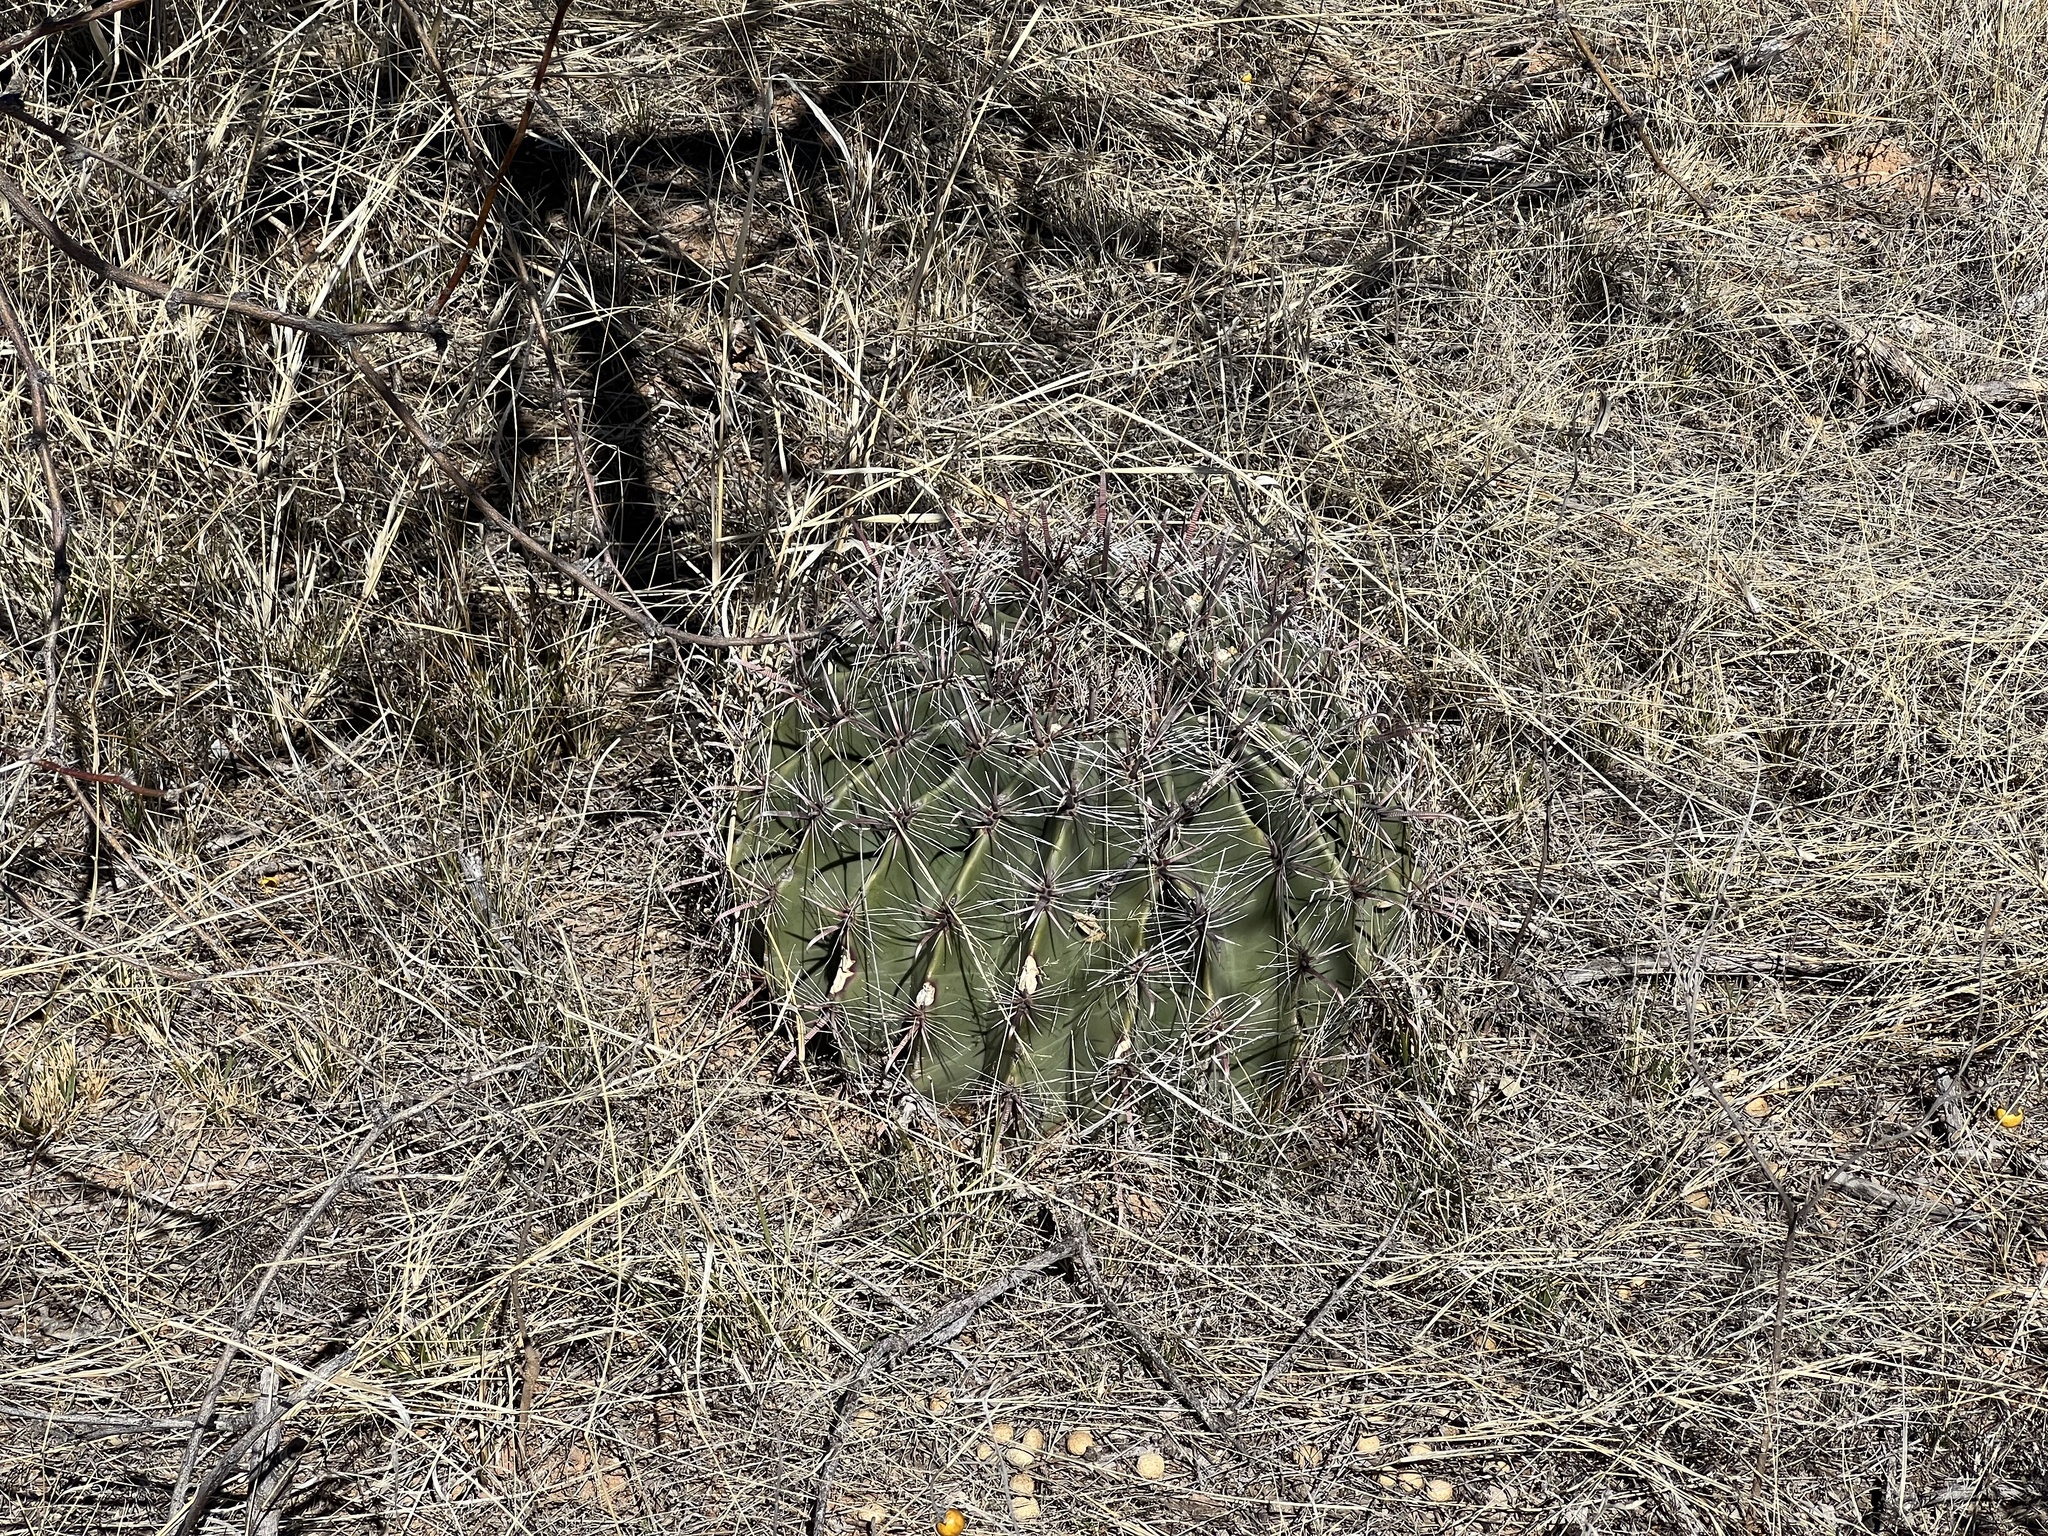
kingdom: Plantae
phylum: Tracheophyta
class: Magnoliopsida
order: Caryophyllales
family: Cactaceae
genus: Ferocactus
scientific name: Ferocactus wislizeni
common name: Candy barrel cactus
